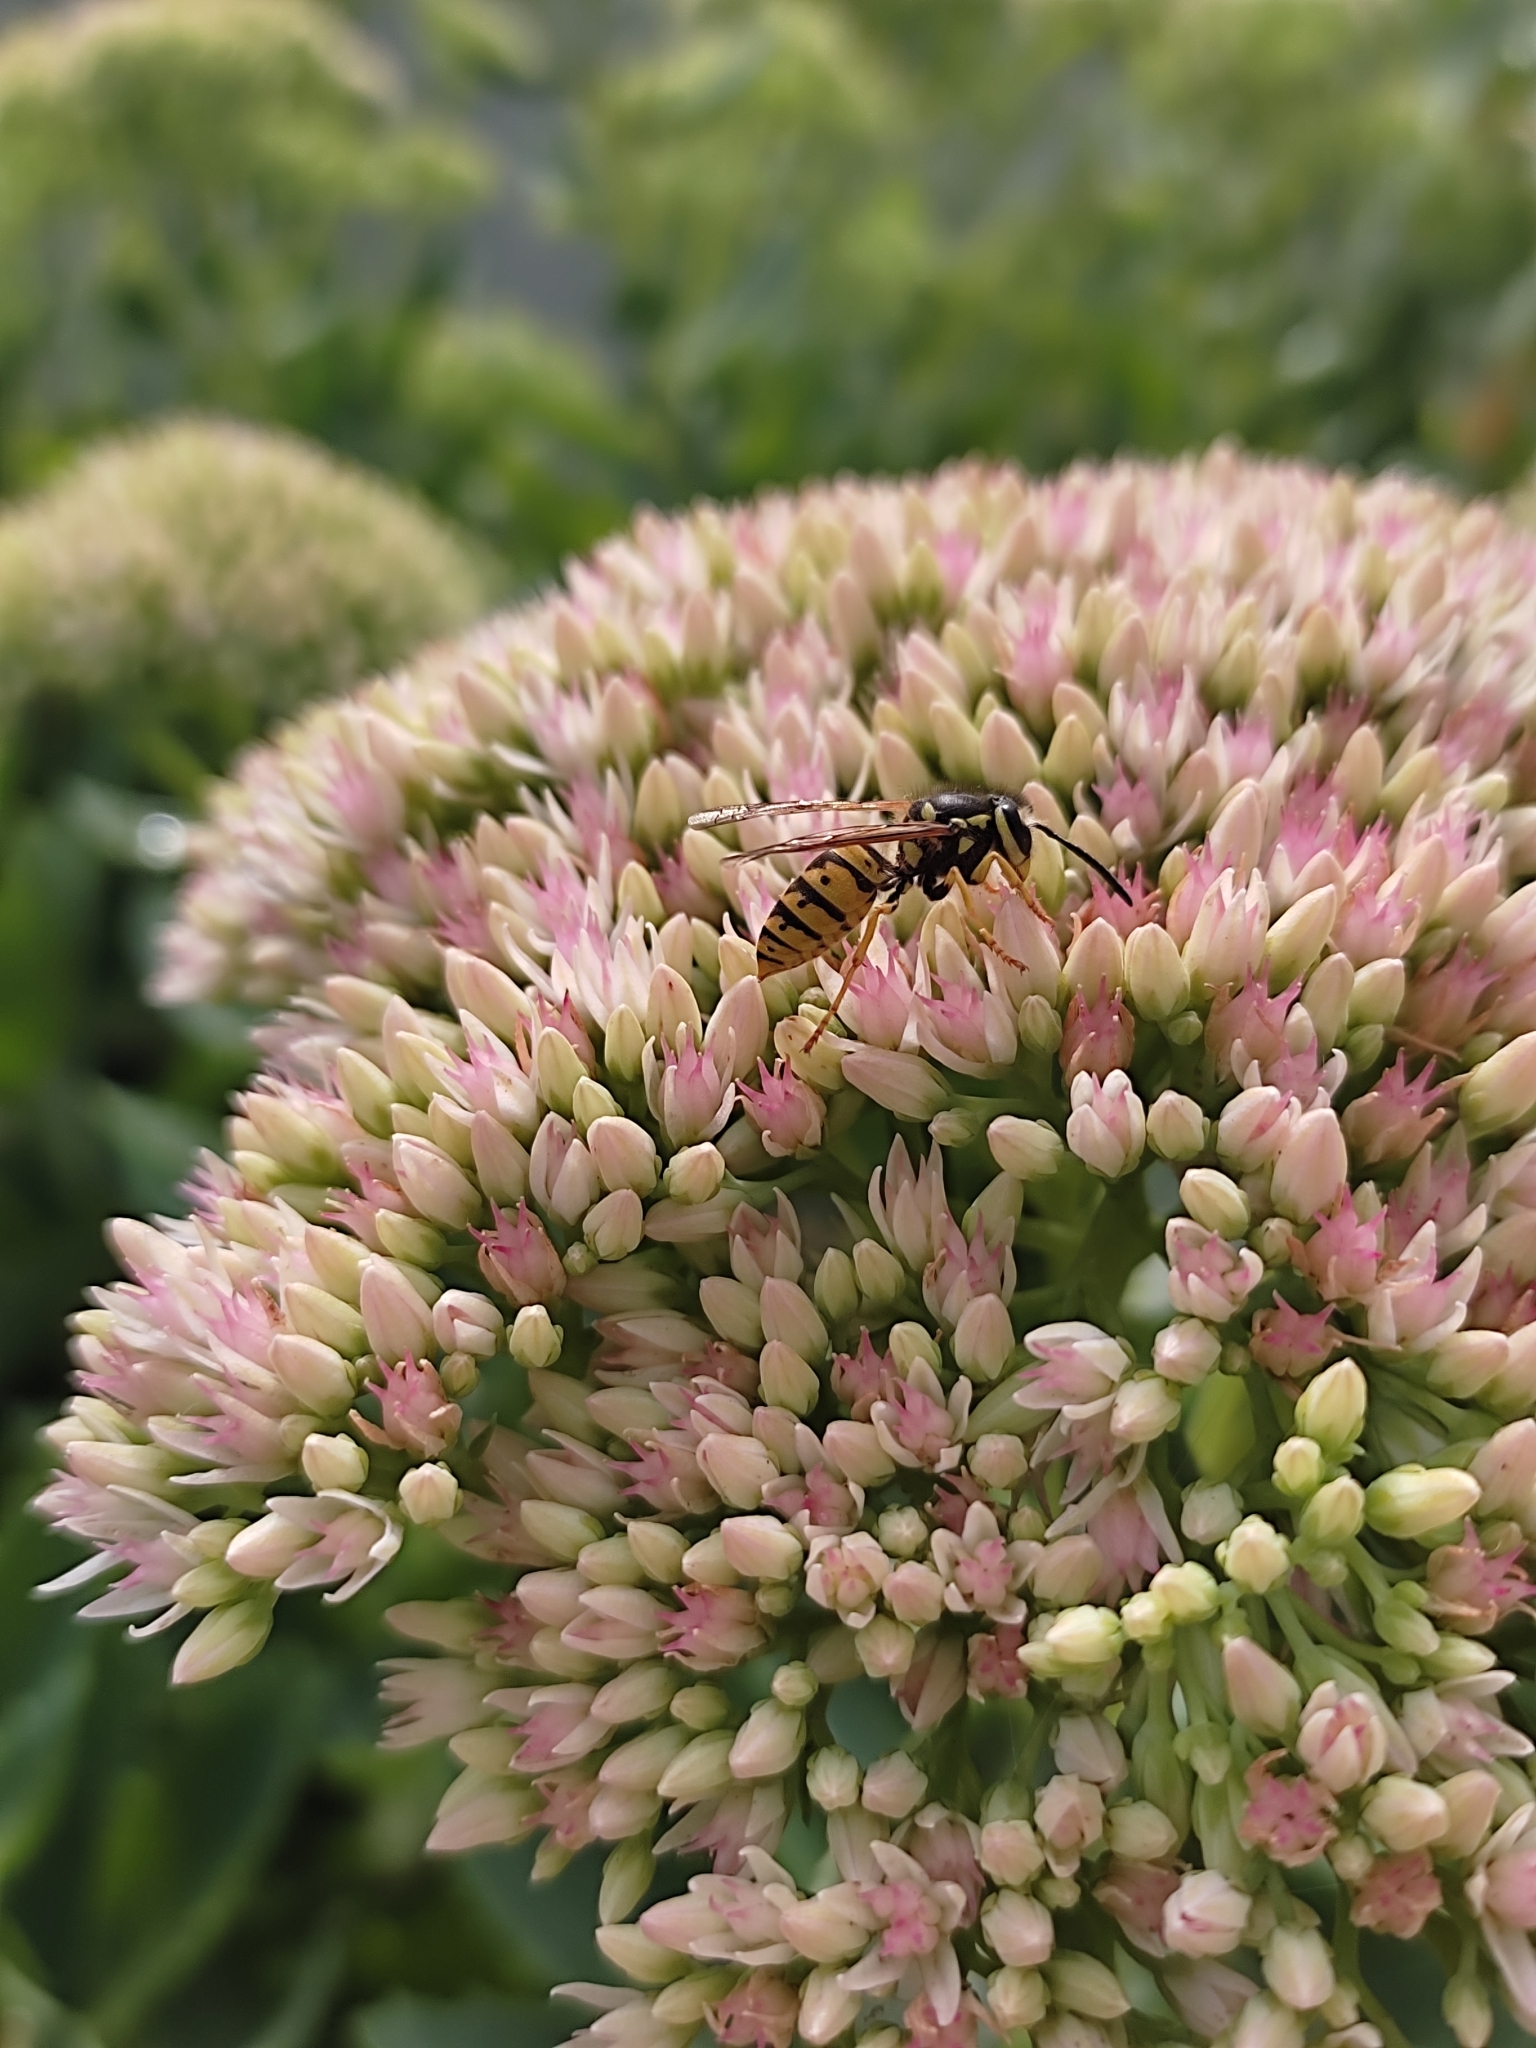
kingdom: Animalia
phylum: Arthropoda
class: Insecta
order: Hymenoptera
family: Vespidae
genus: Vespula
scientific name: Vespula germanica
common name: German wasp
